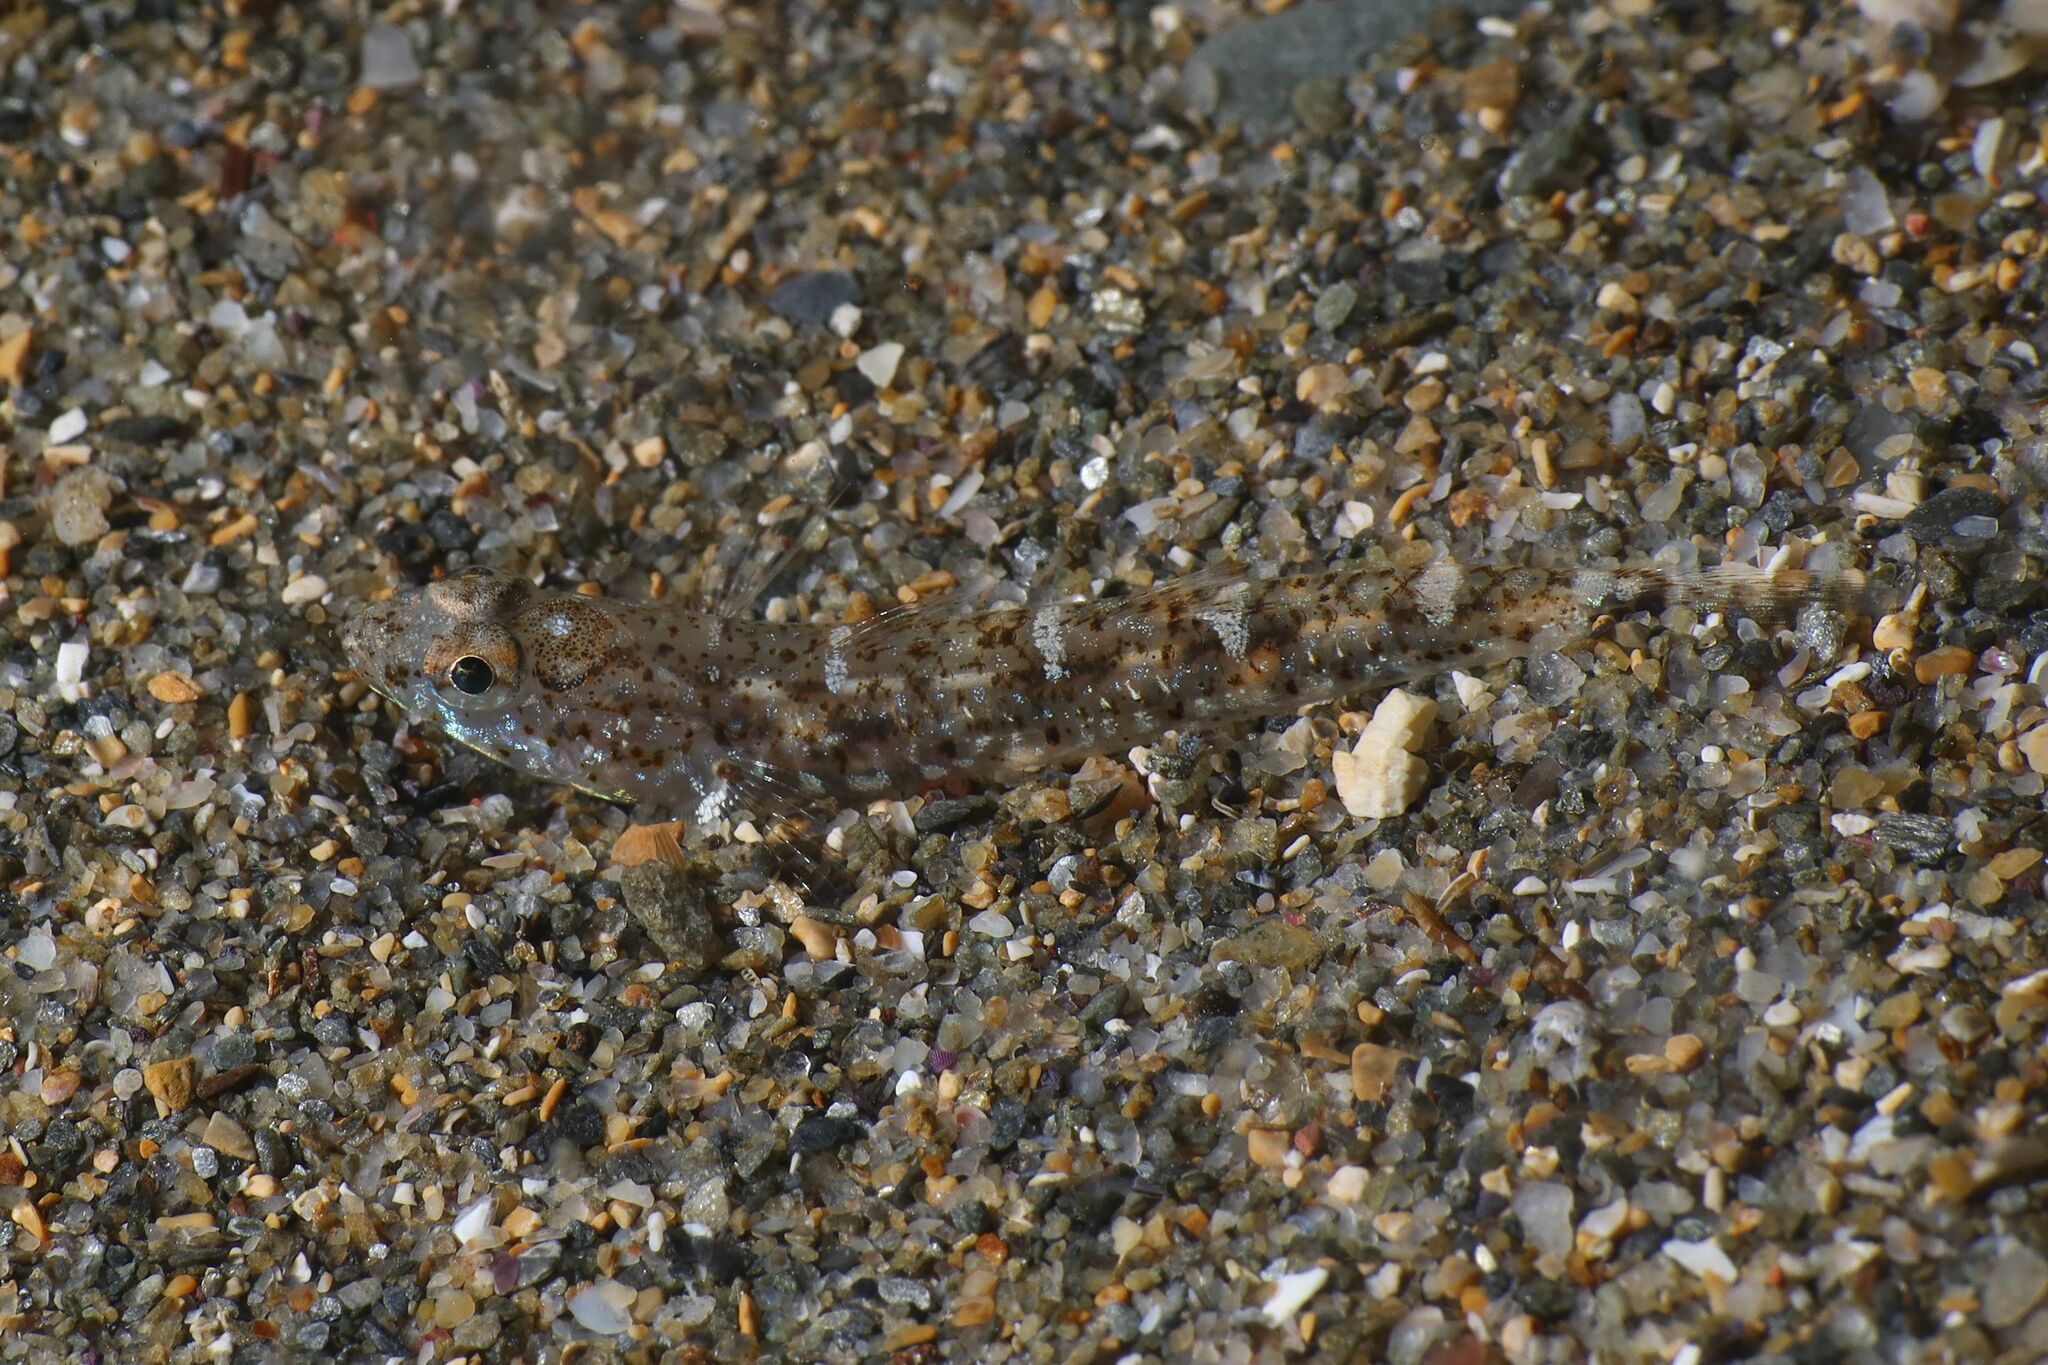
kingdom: Animalia
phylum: Chordata
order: Perciformes
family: Gobiidae
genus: Pomatoschistus
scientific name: Pomatoschistus marmoratus
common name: Marbled goby
